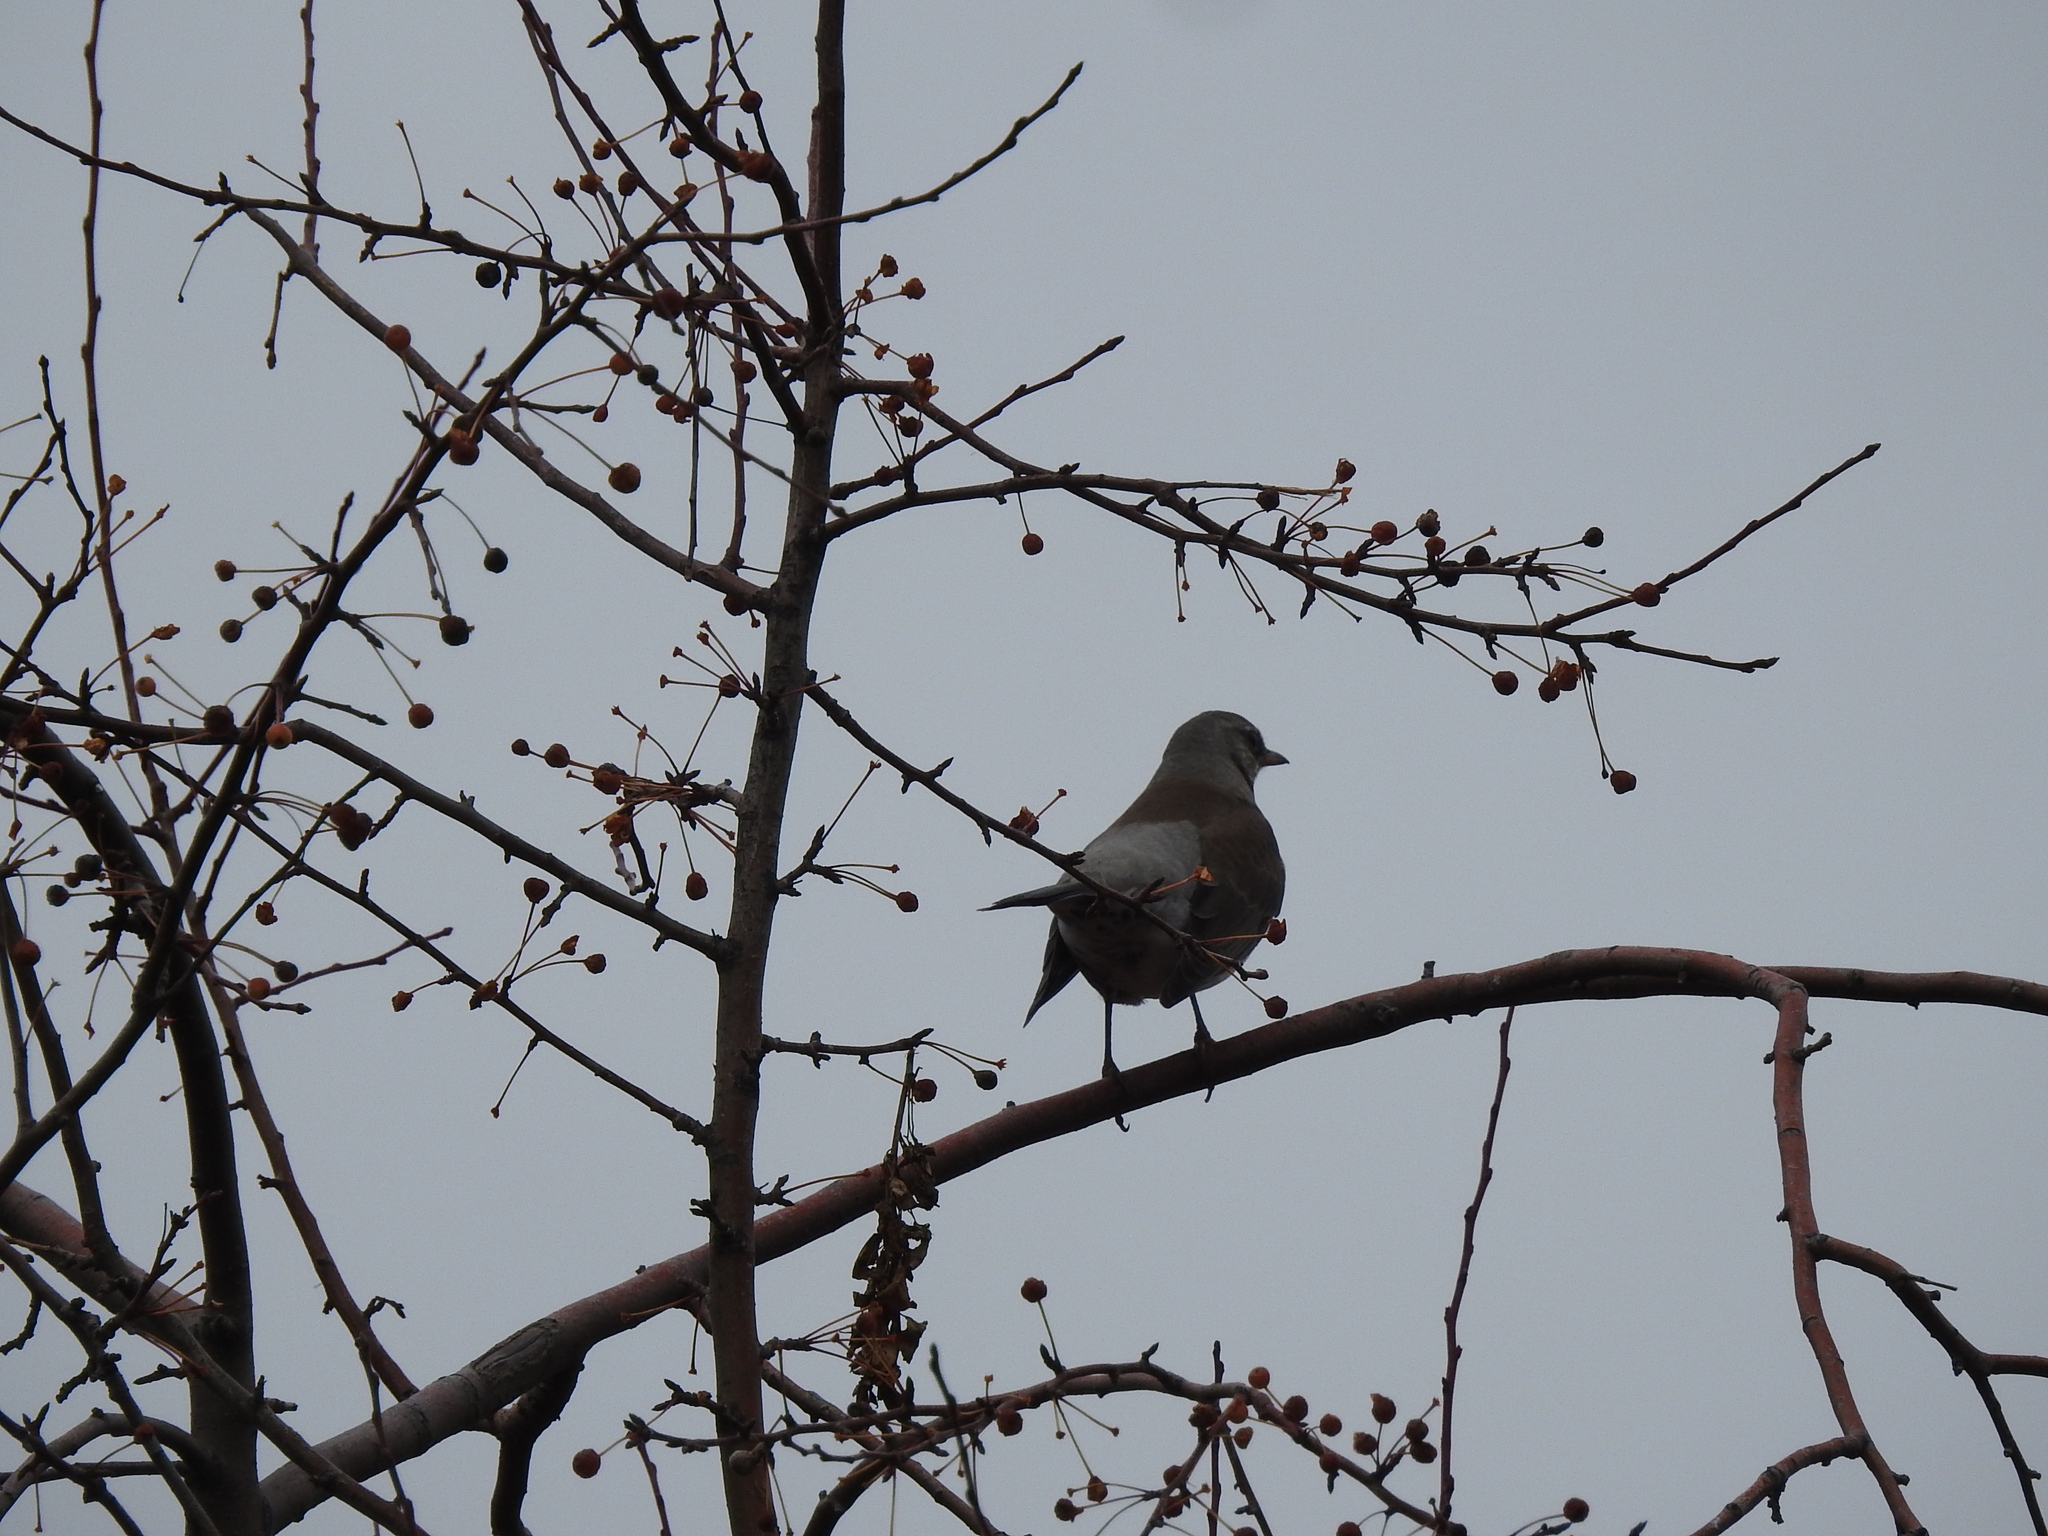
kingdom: Animalia
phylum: Chordata
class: Aves
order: Passeriformes
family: Turdidae
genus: Turdus
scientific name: Turdus pilaris
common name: Fieldfare
